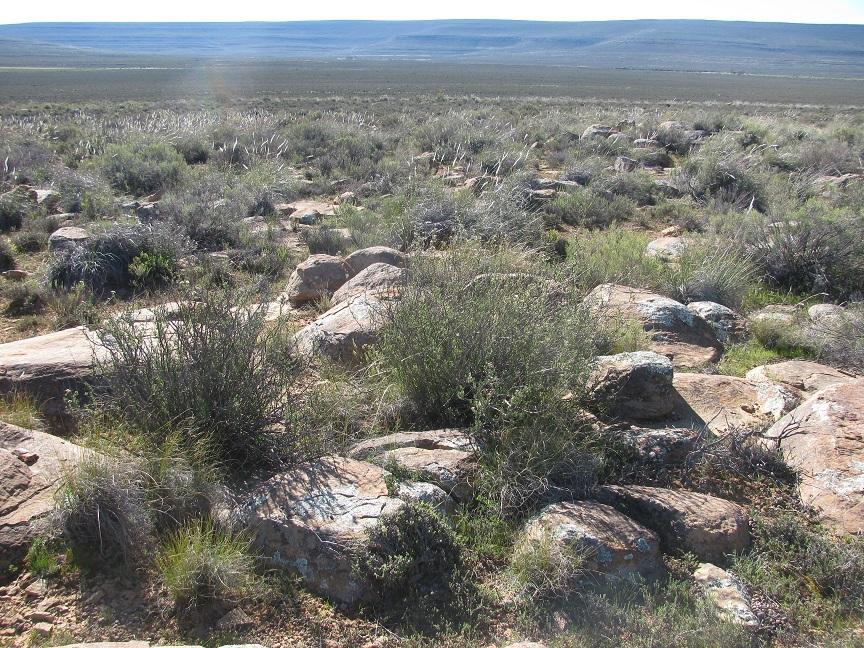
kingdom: Plantae
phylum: Tracheophyta
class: Magnoliopsida
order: Asterales
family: Asteraceae
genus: Eriocephalus
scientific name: Eriocephalus punctulatus
